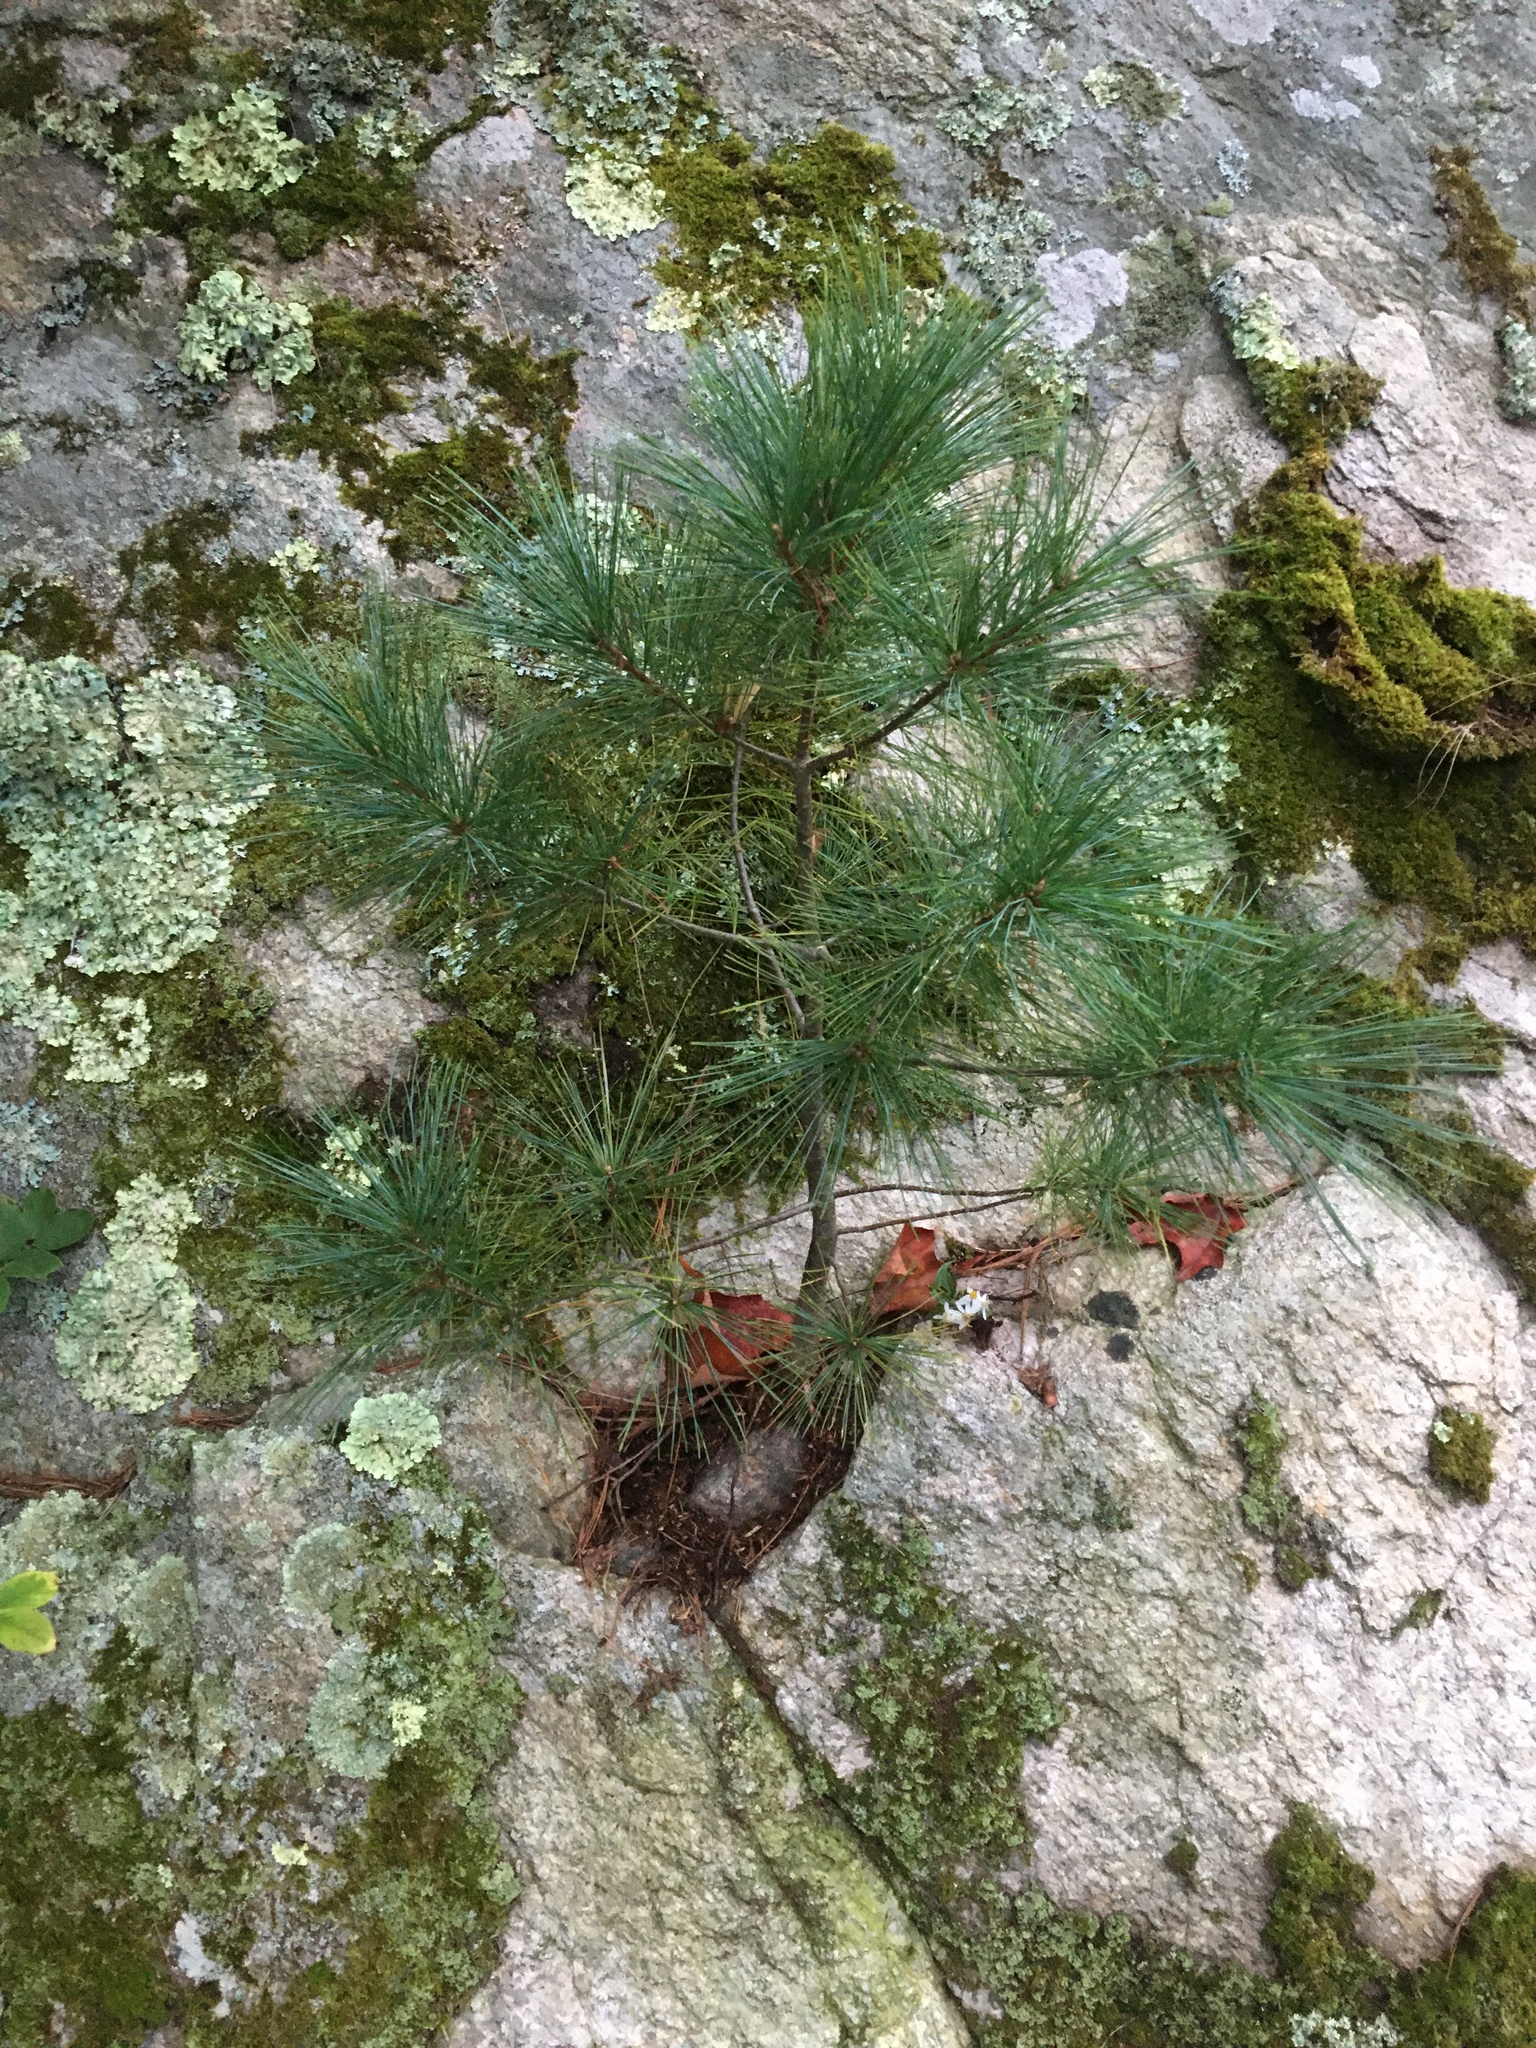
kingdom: Plantae
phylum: Tracheophyta
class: Pinopsida
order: Pinales
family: Pinaceae
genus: Pinus
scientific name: Pinus strobus
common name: Weymouth pine
